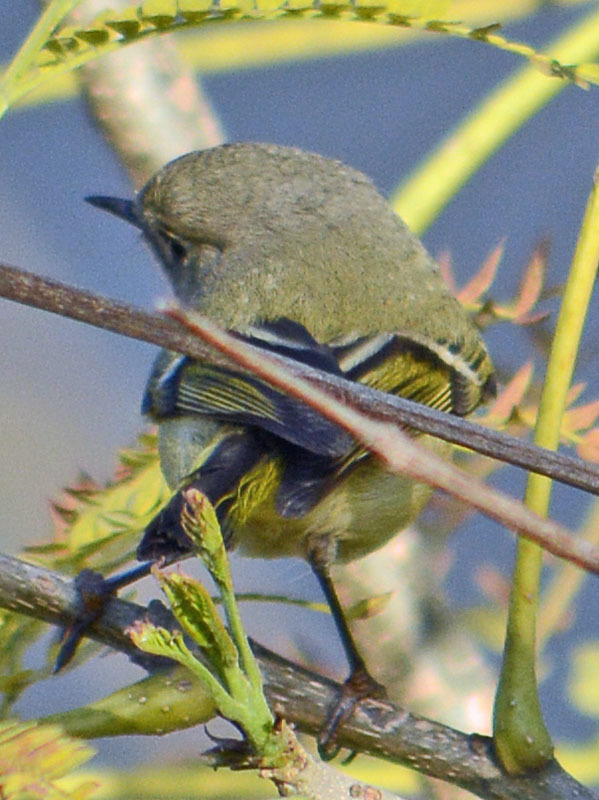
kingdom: Animalia
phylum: Chordata
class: Aves
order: Passeriformes
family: Regulidae
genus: Regulus
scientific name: Regulus calendula
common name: Ruby-crowned kinglet
